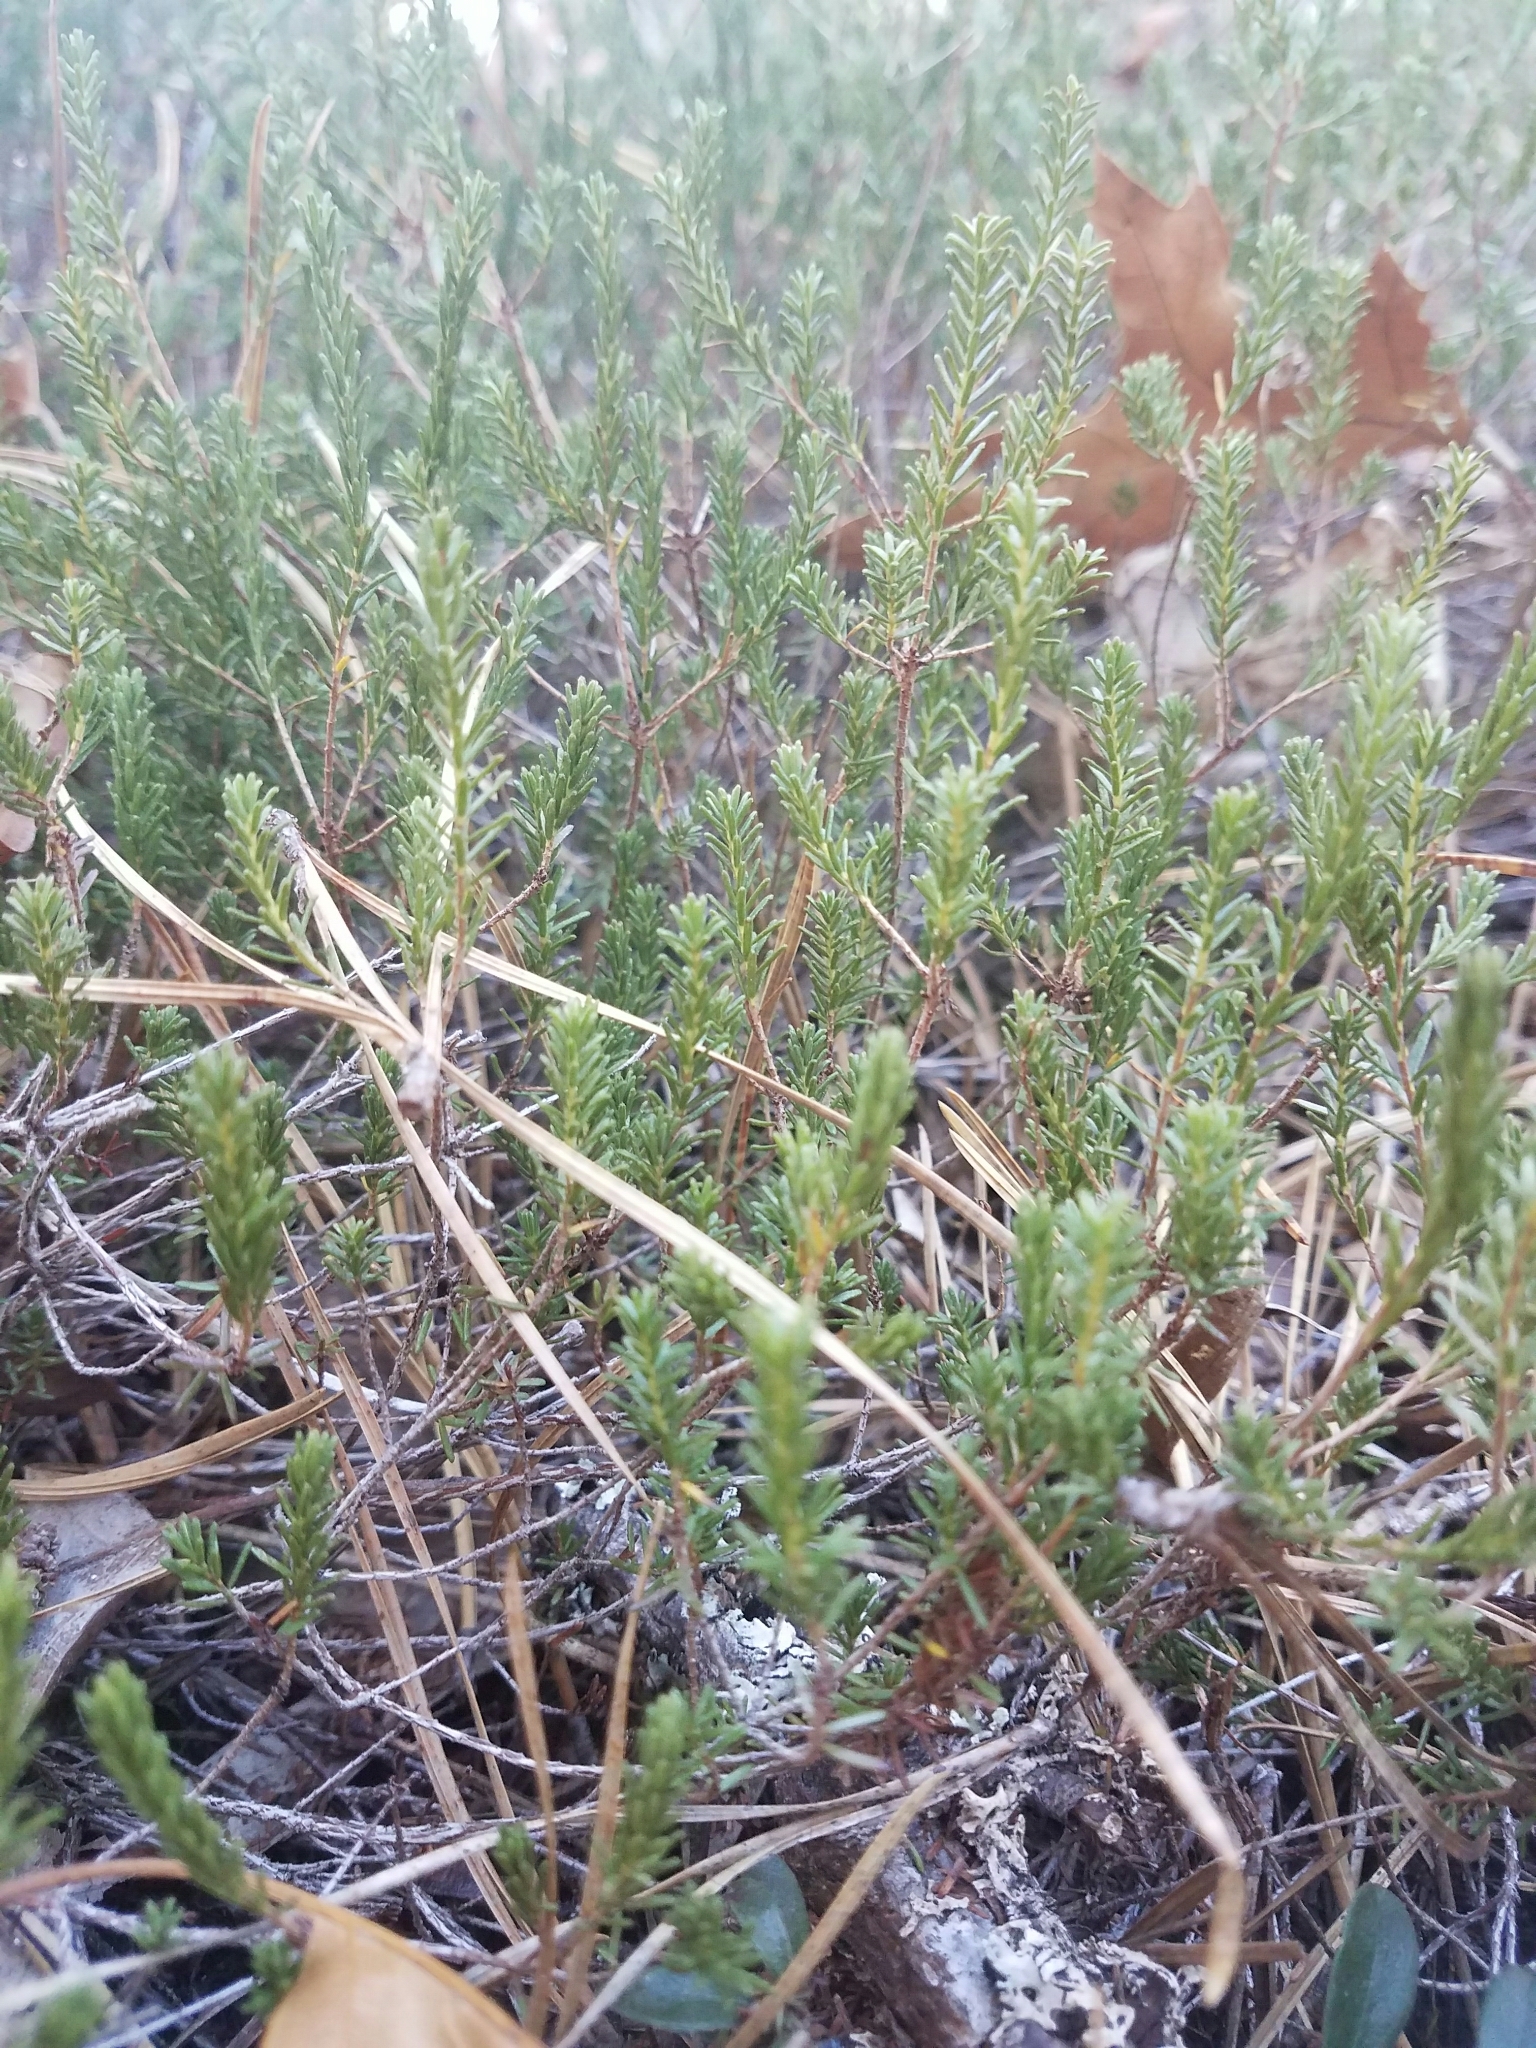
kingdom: Plantae
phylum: Tracheophyta
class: Magnoliopsida
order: Ericales
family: Ericaceae
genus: Corema
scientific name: Corema conradii
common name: Broom-crowberry
